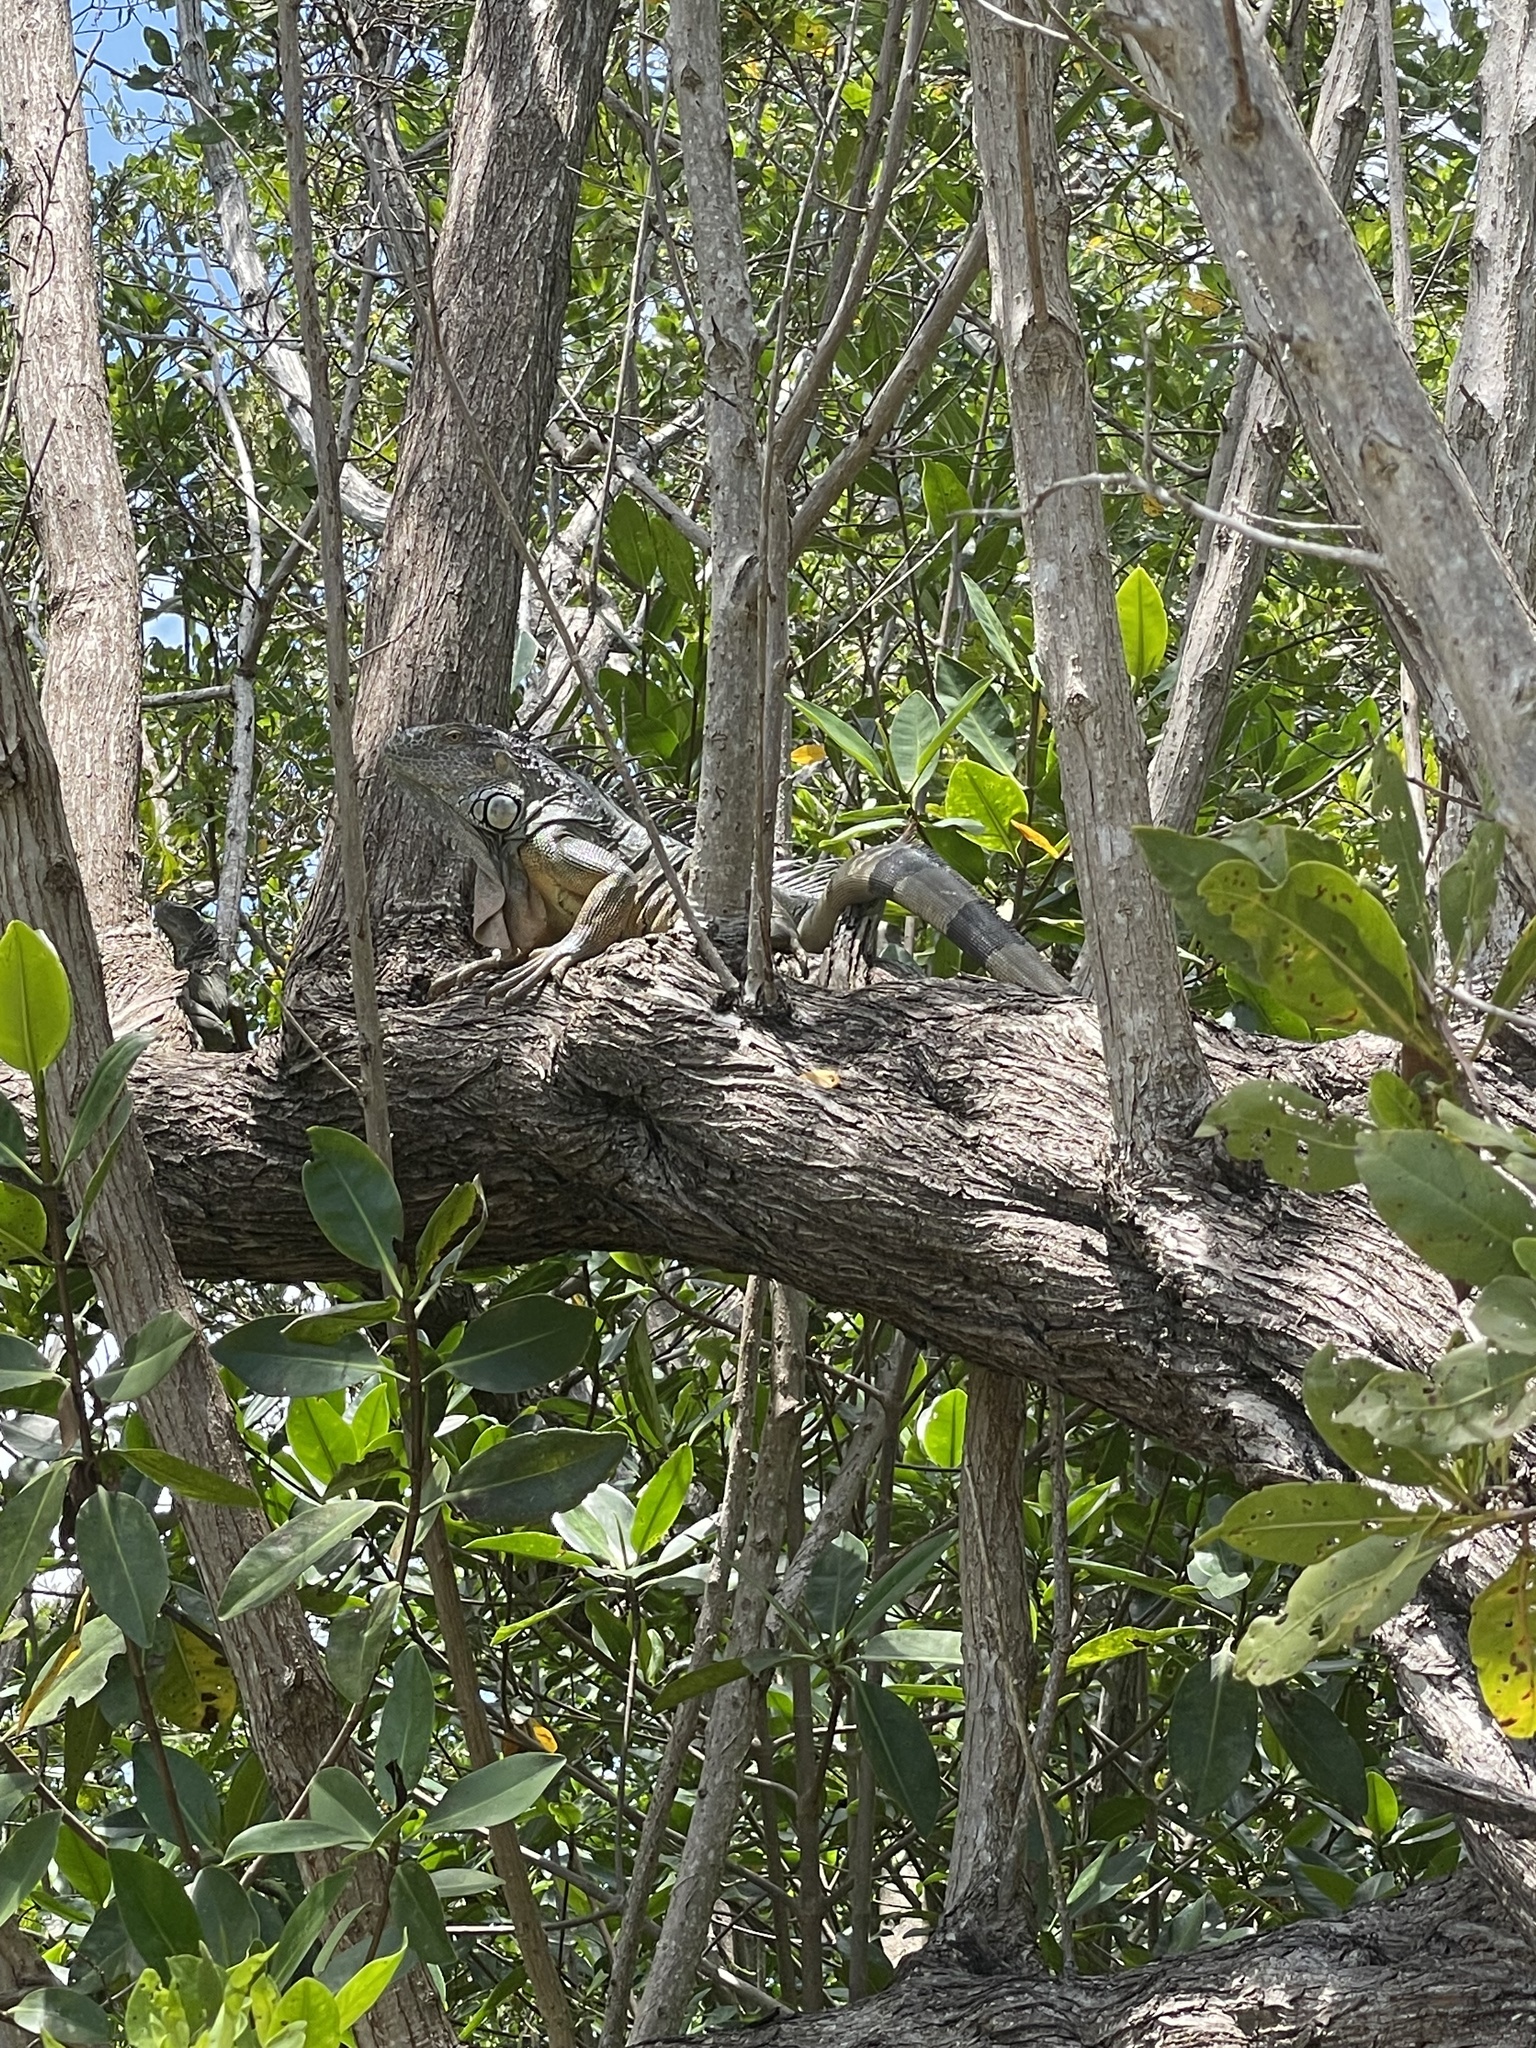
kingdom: Animalia
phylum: Chordata
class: Squamata
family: Iguanidae
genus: Iguana
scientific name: Iguana iguana
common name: Green iguana
